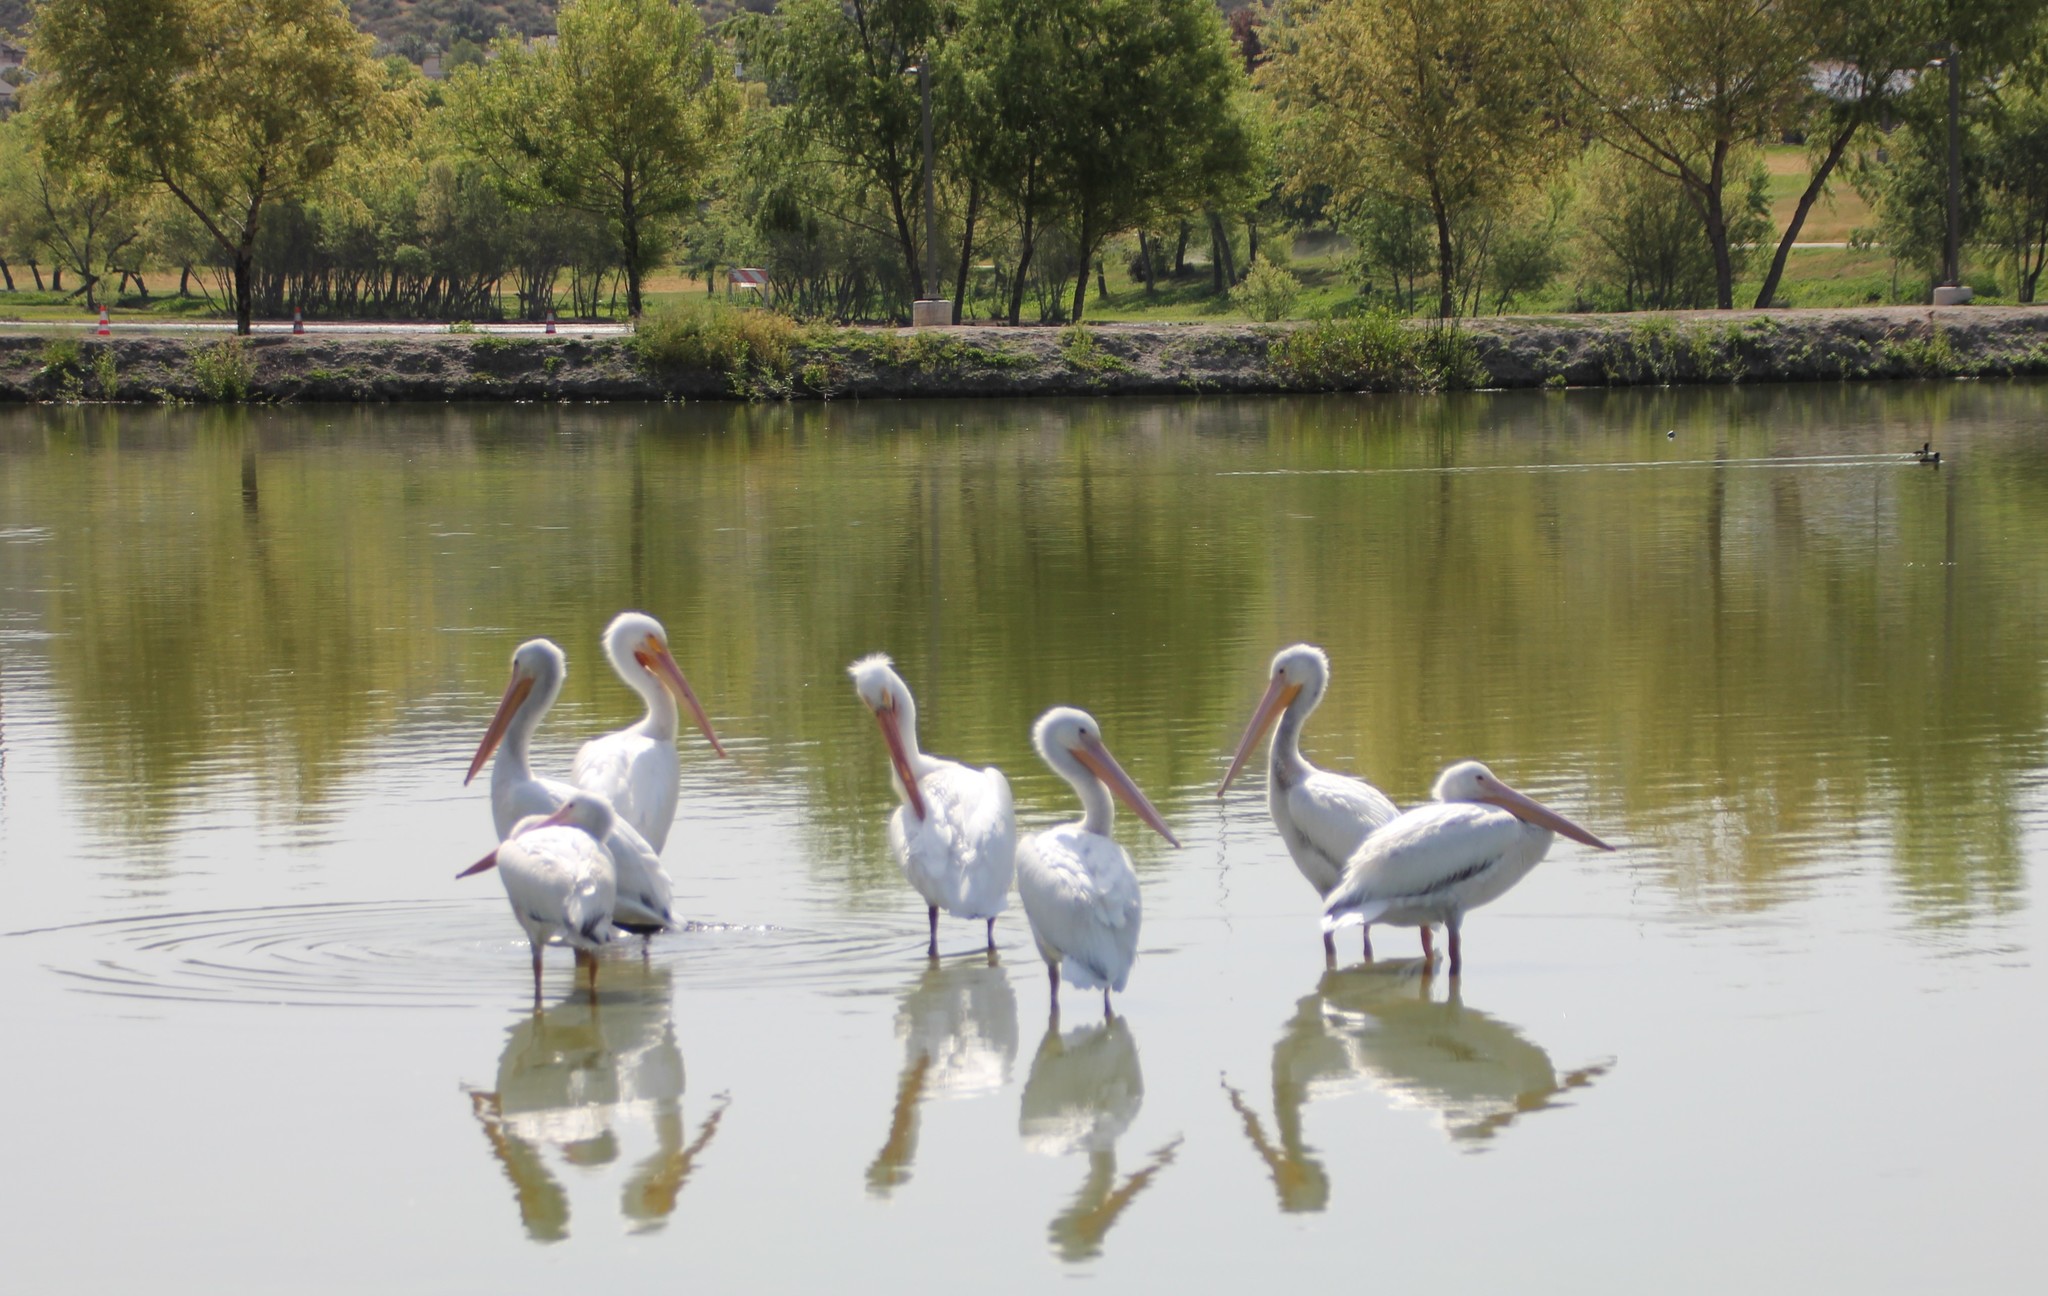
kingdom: Animalia
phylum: Chordata
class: Aves
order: Pelecaniformes
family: Pelecanidae
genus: Pelecanus
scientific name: Pelecanus erythrorhynchos
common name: American white pelican
